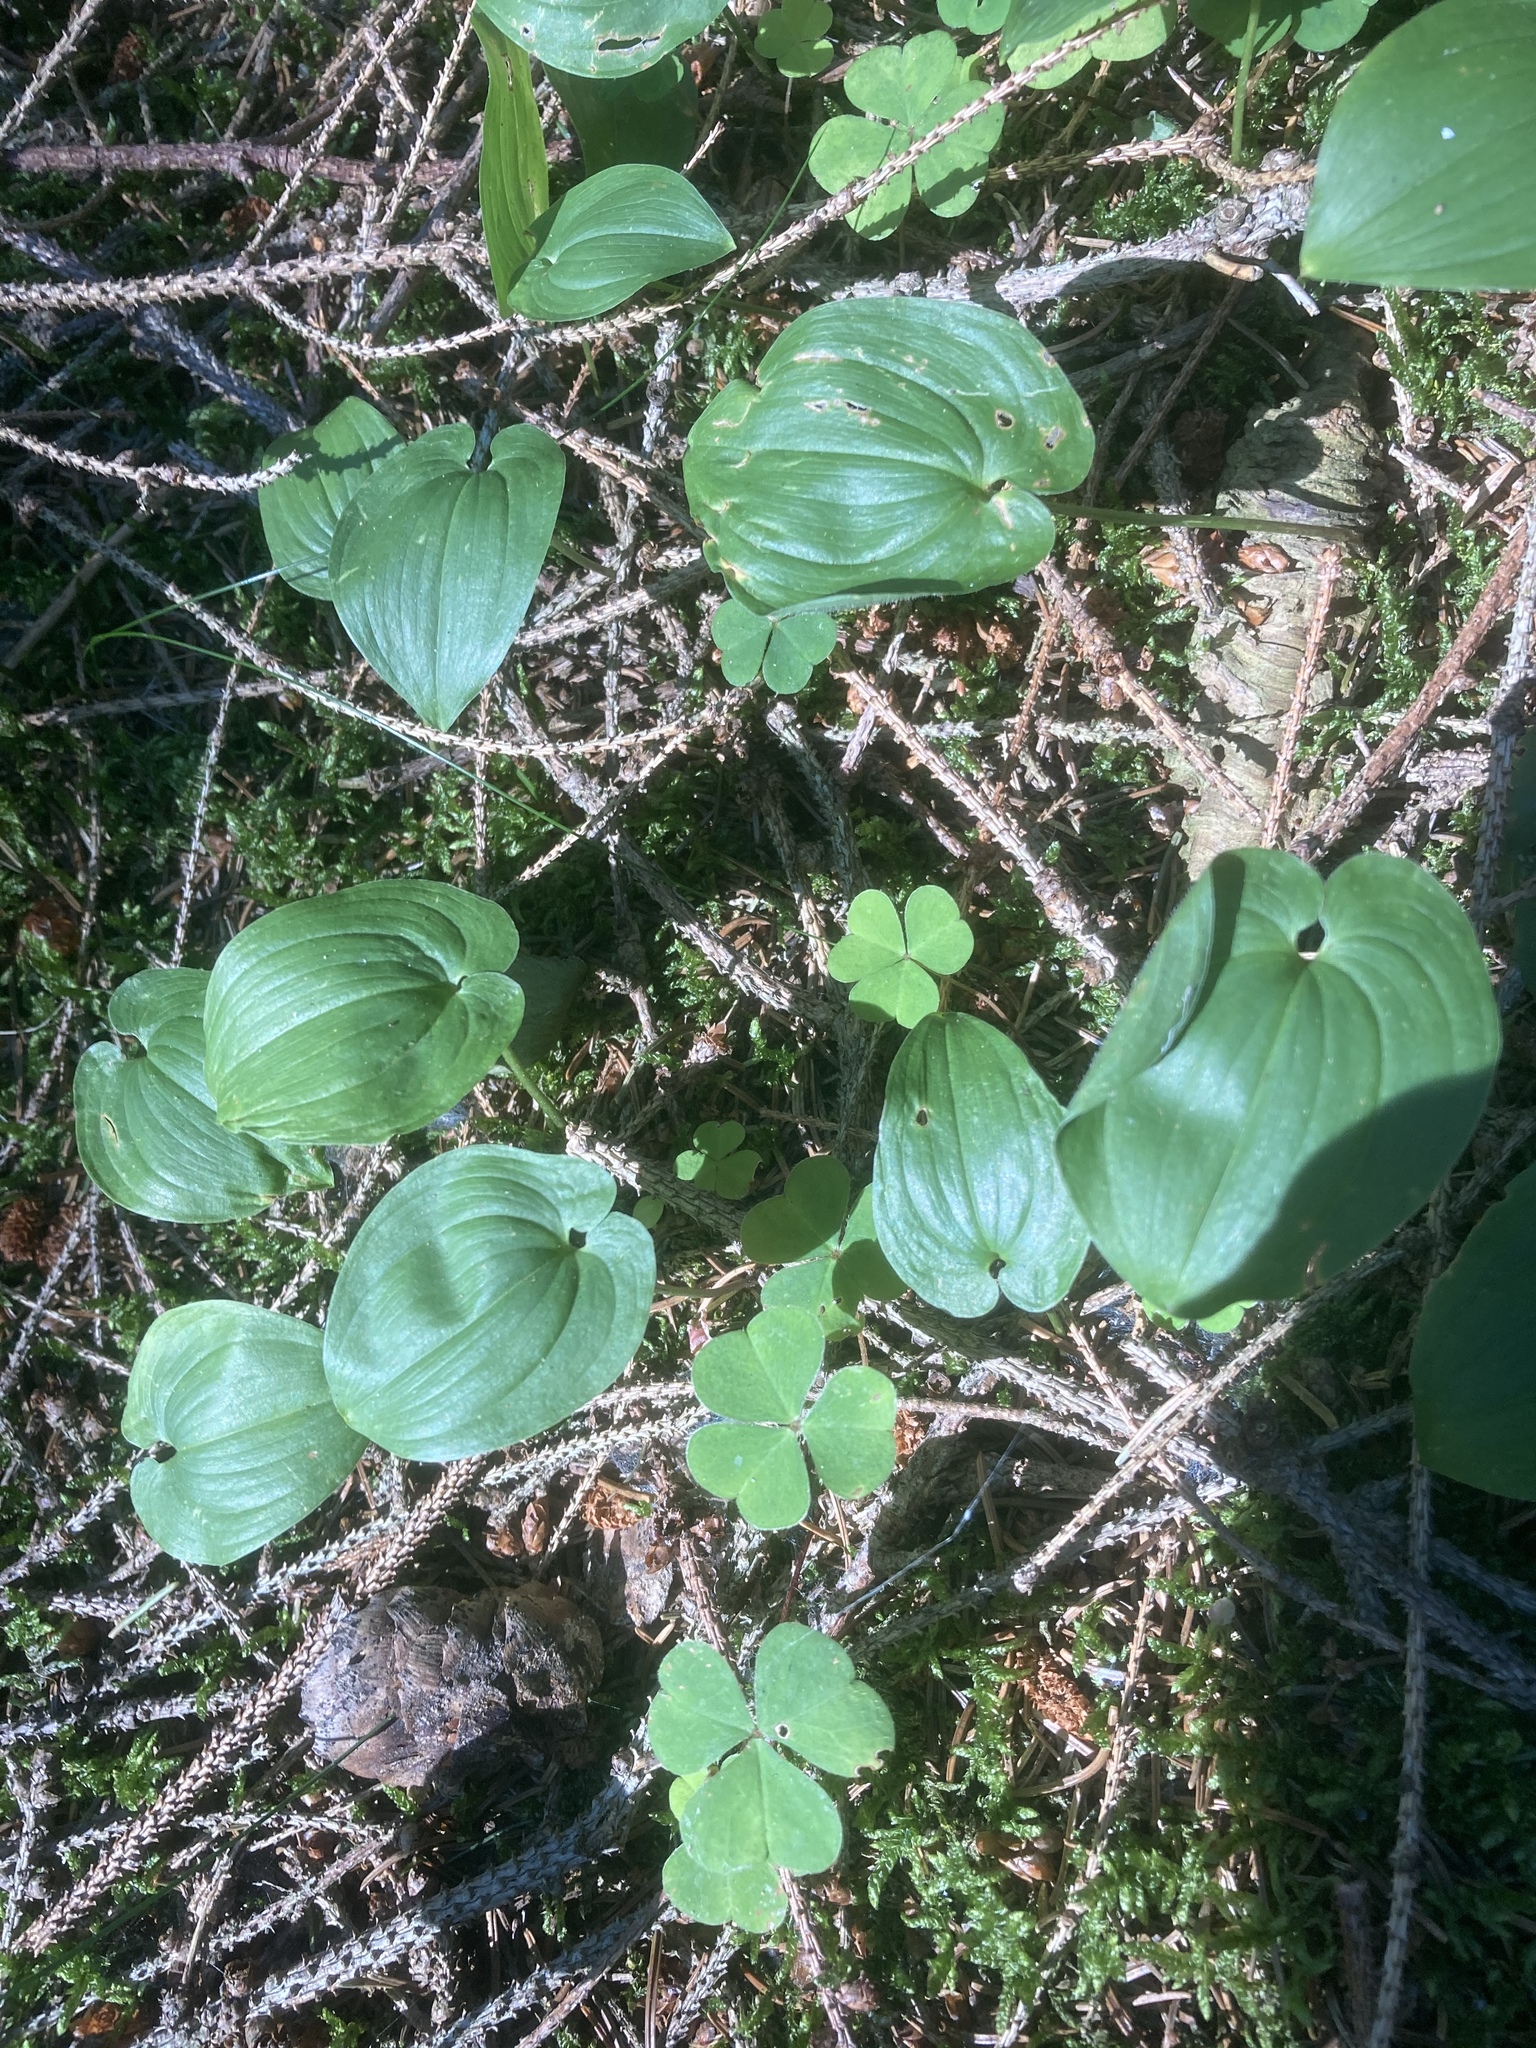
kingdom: Plantae
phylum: Tracheophyta
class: Liliopsida
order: Asparagales
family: Asparagaceae
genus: Maianthemum
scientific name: Maianthemum bifolium
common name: May lily
